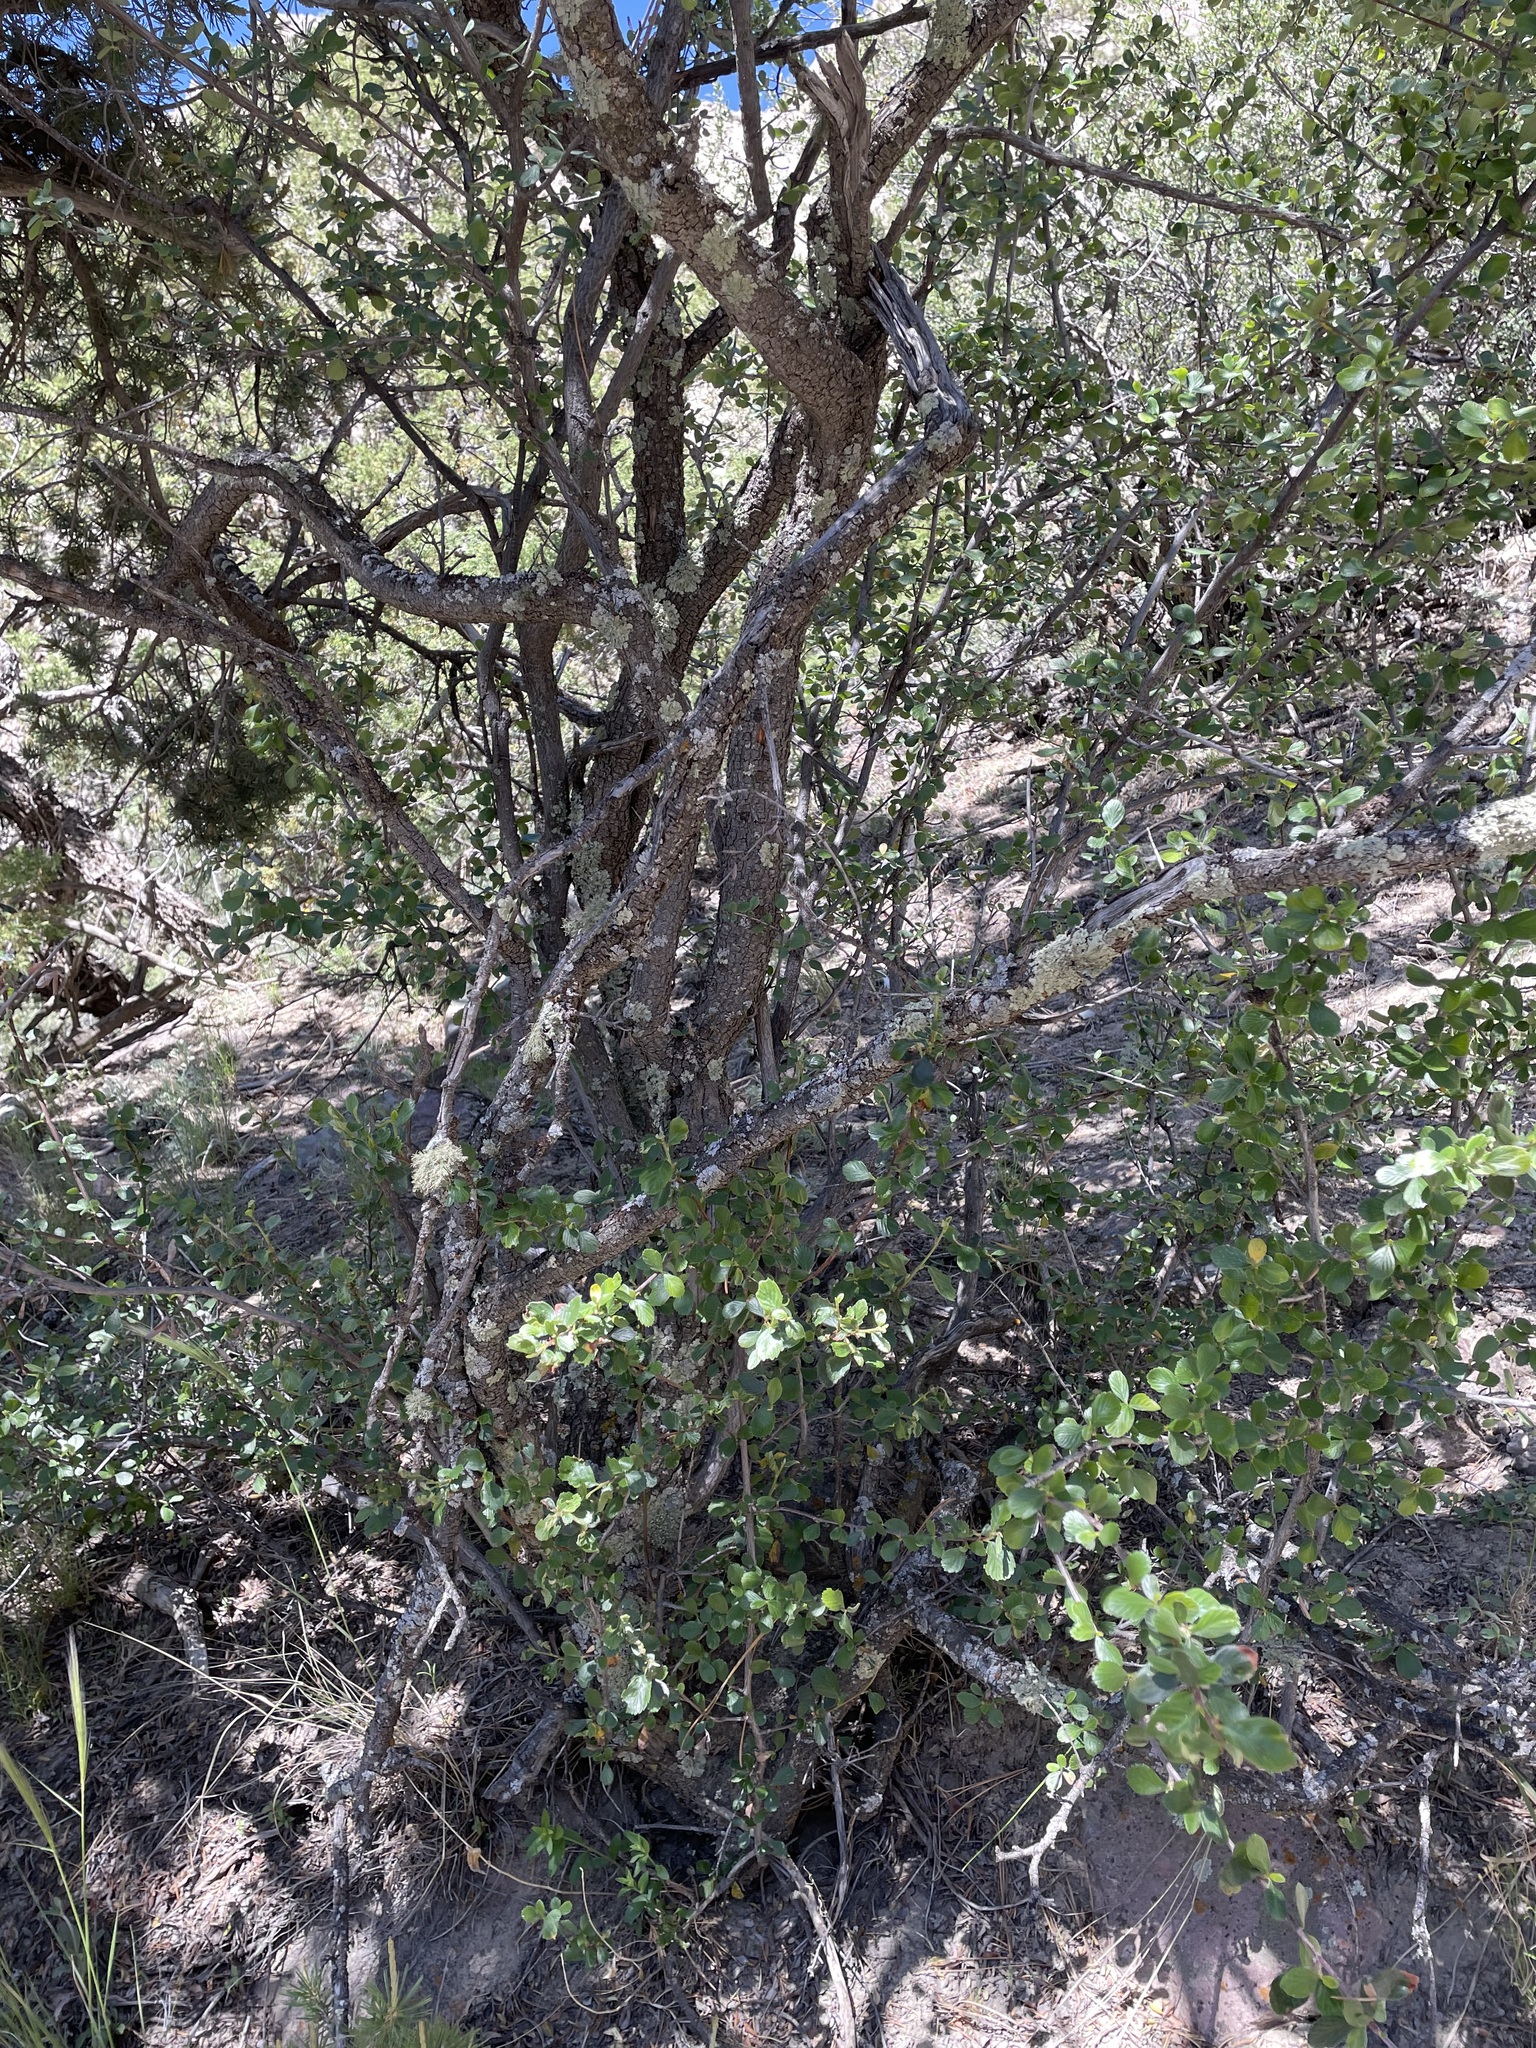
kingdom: Plantae
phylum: Tracheophyta
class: Magnoliopsida
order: Rosales
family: Rosaceae
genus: Cercocarpus
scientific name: Cercocarpus montanus
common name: Alder-leaf cercocarpus
